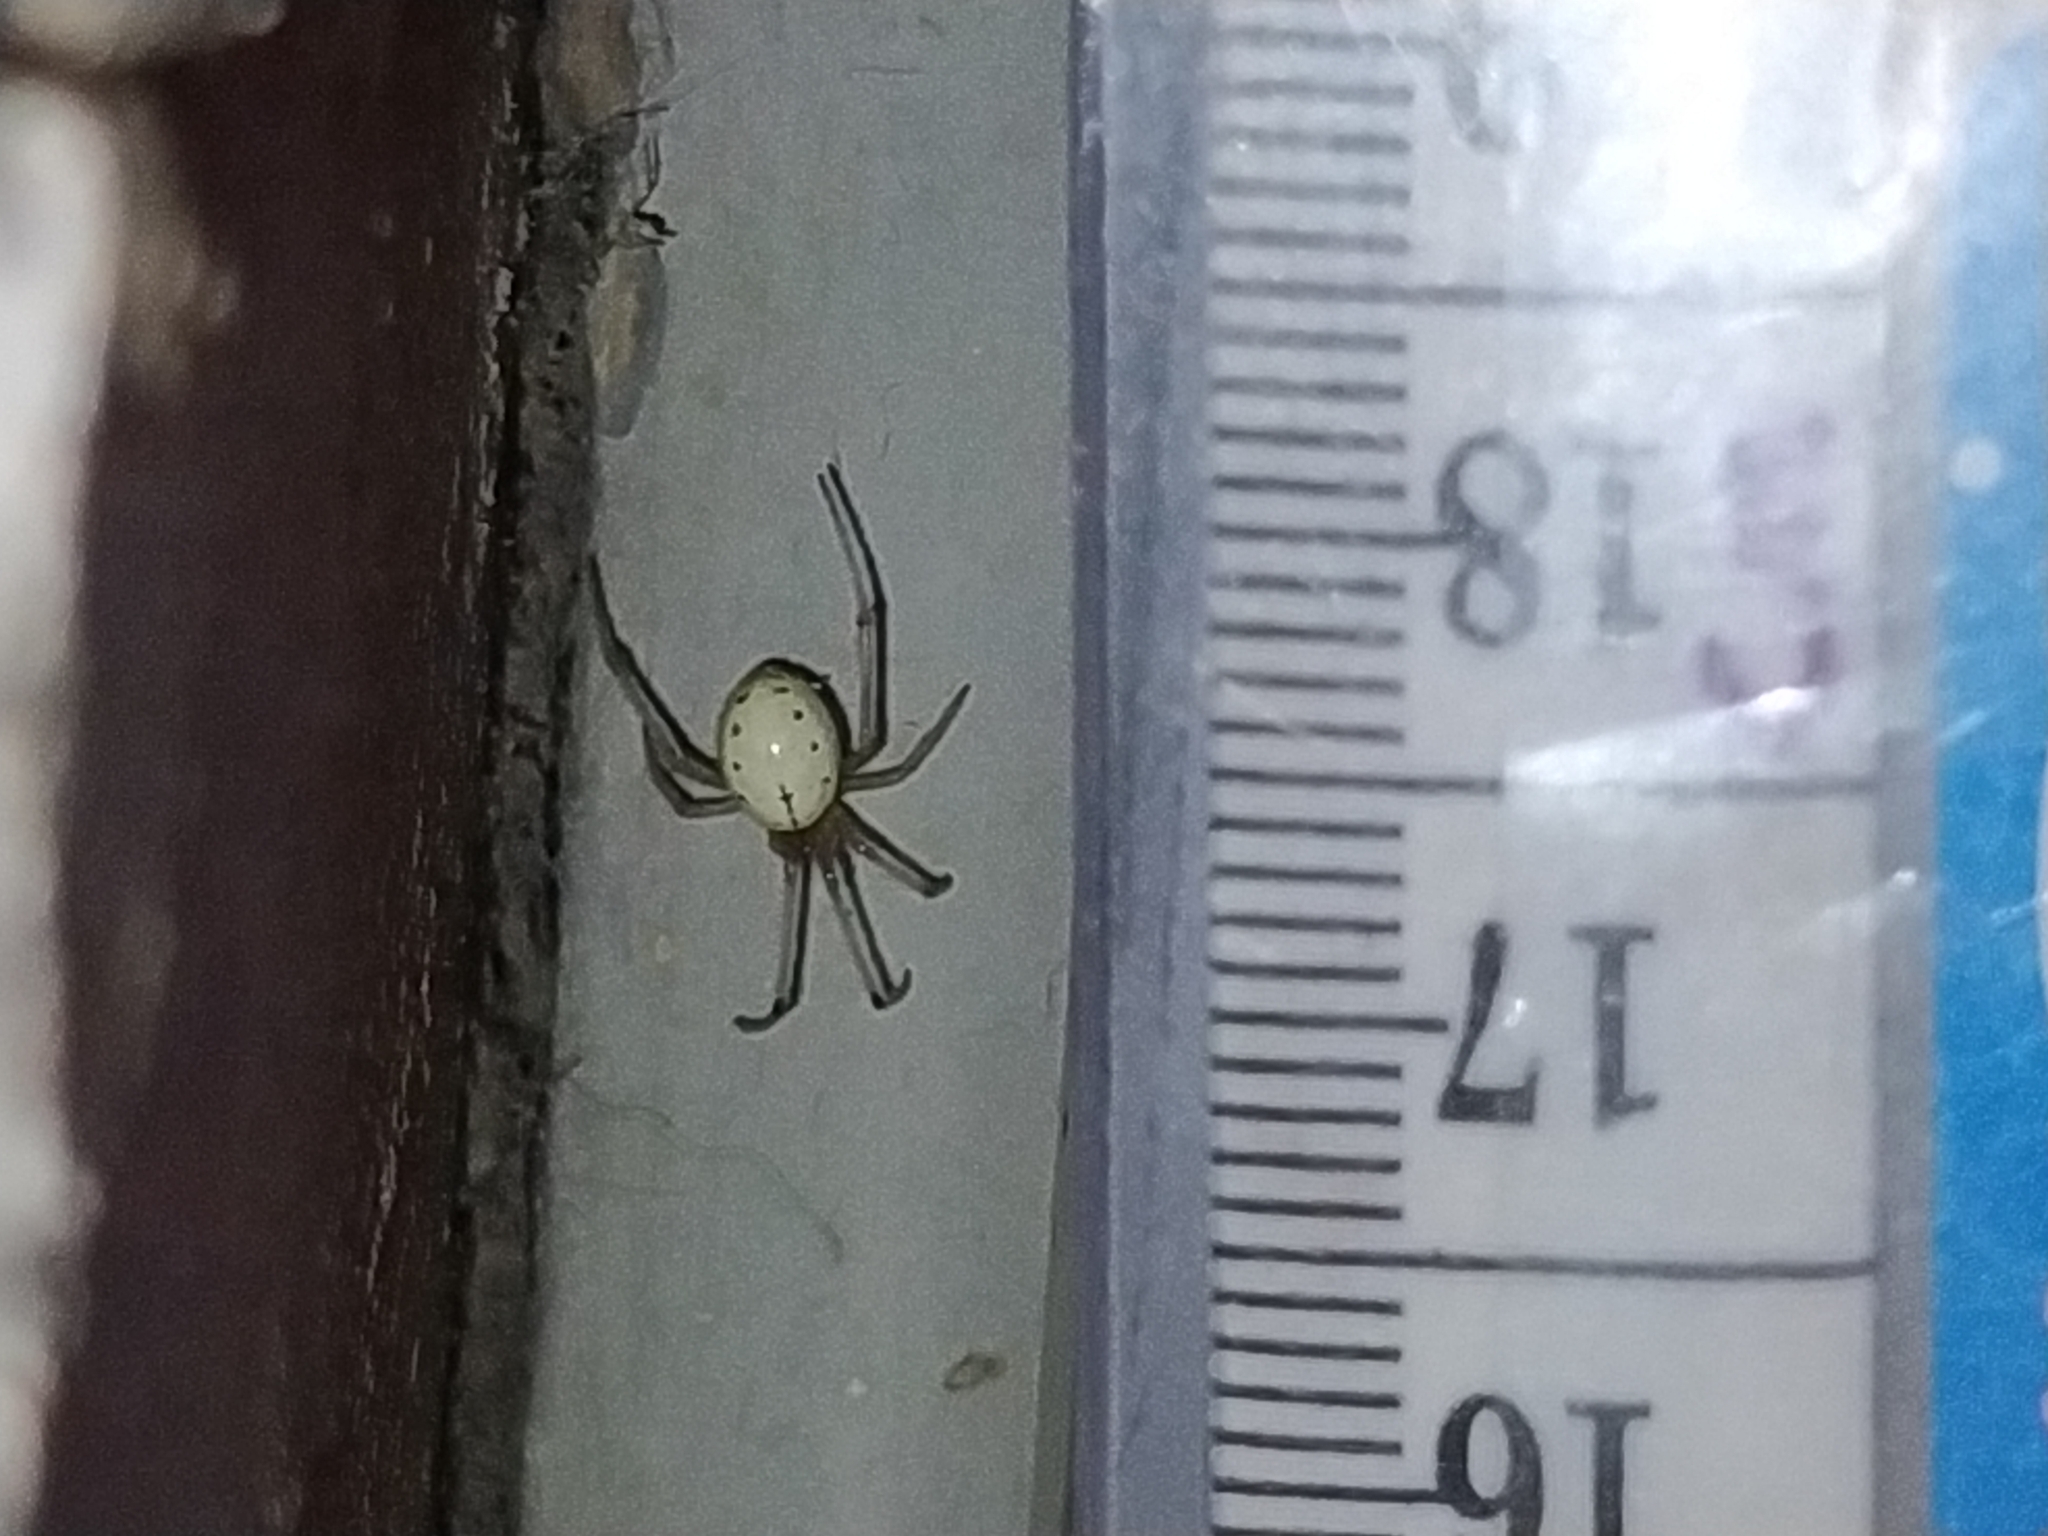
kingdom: Animalia
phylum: Arthropoda
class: Arachnida
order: Araneae
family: Theridiidae
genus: Enoplognatha
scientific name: Enoplognatha ovata
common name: Common candy-striped spider
